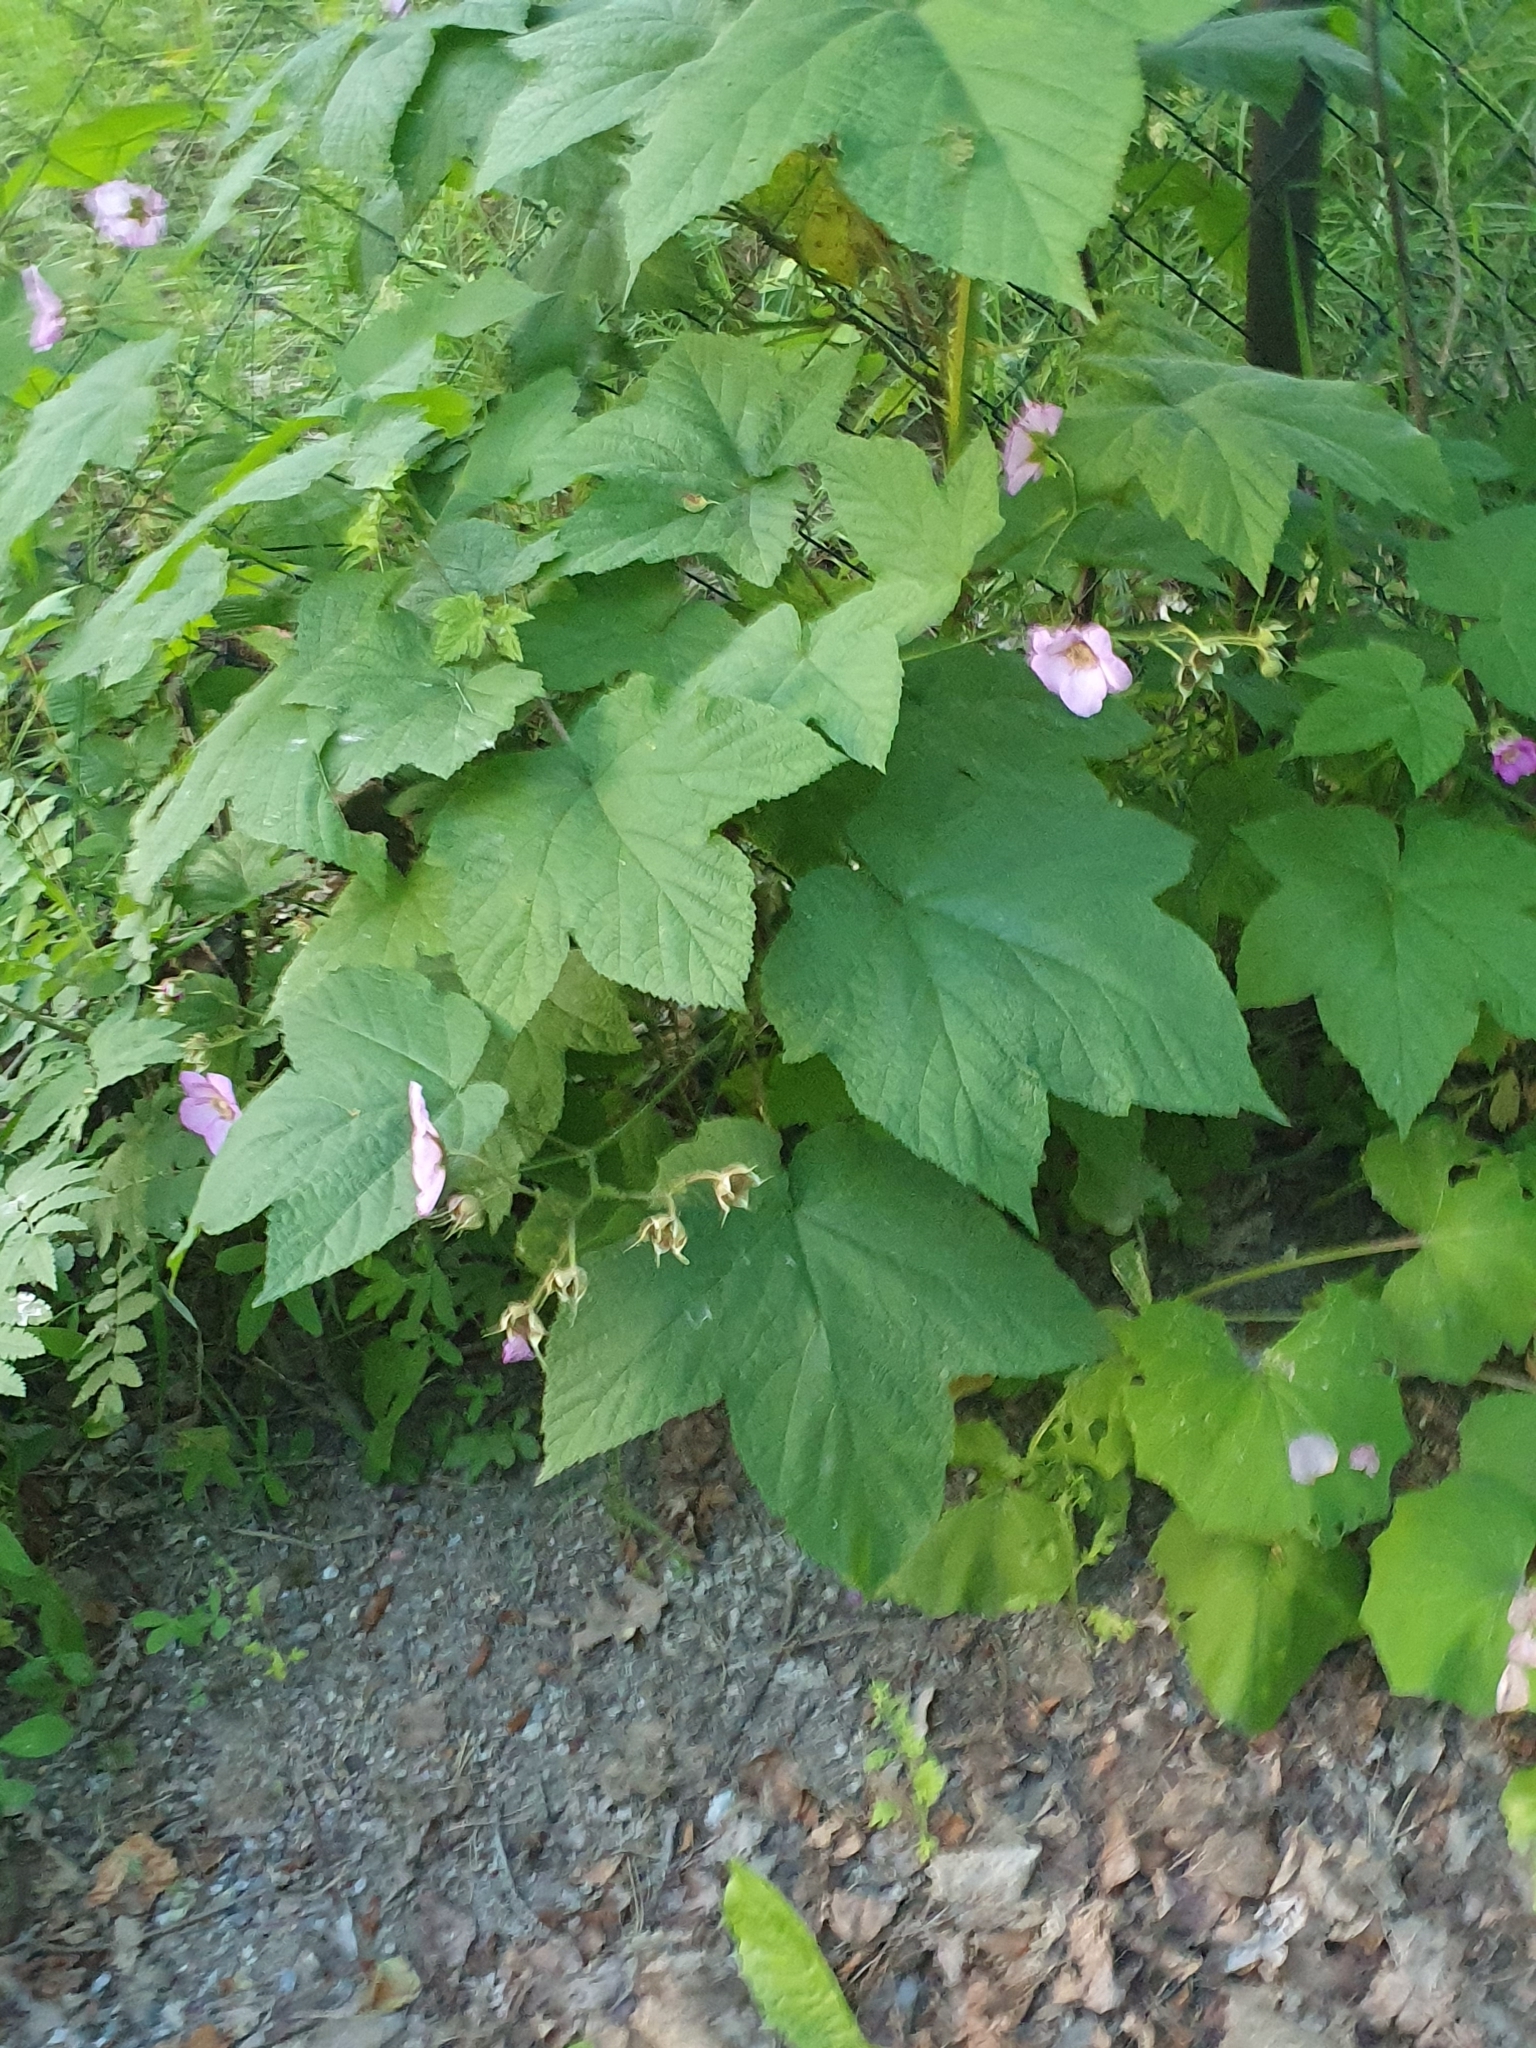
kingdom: Plantae
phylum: Tracheophyta
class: Magnoliopsida
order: Rosales
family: Rosaceae
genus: Rubus
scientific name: Rubus odoratus
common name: Purple-flowered raspberry
